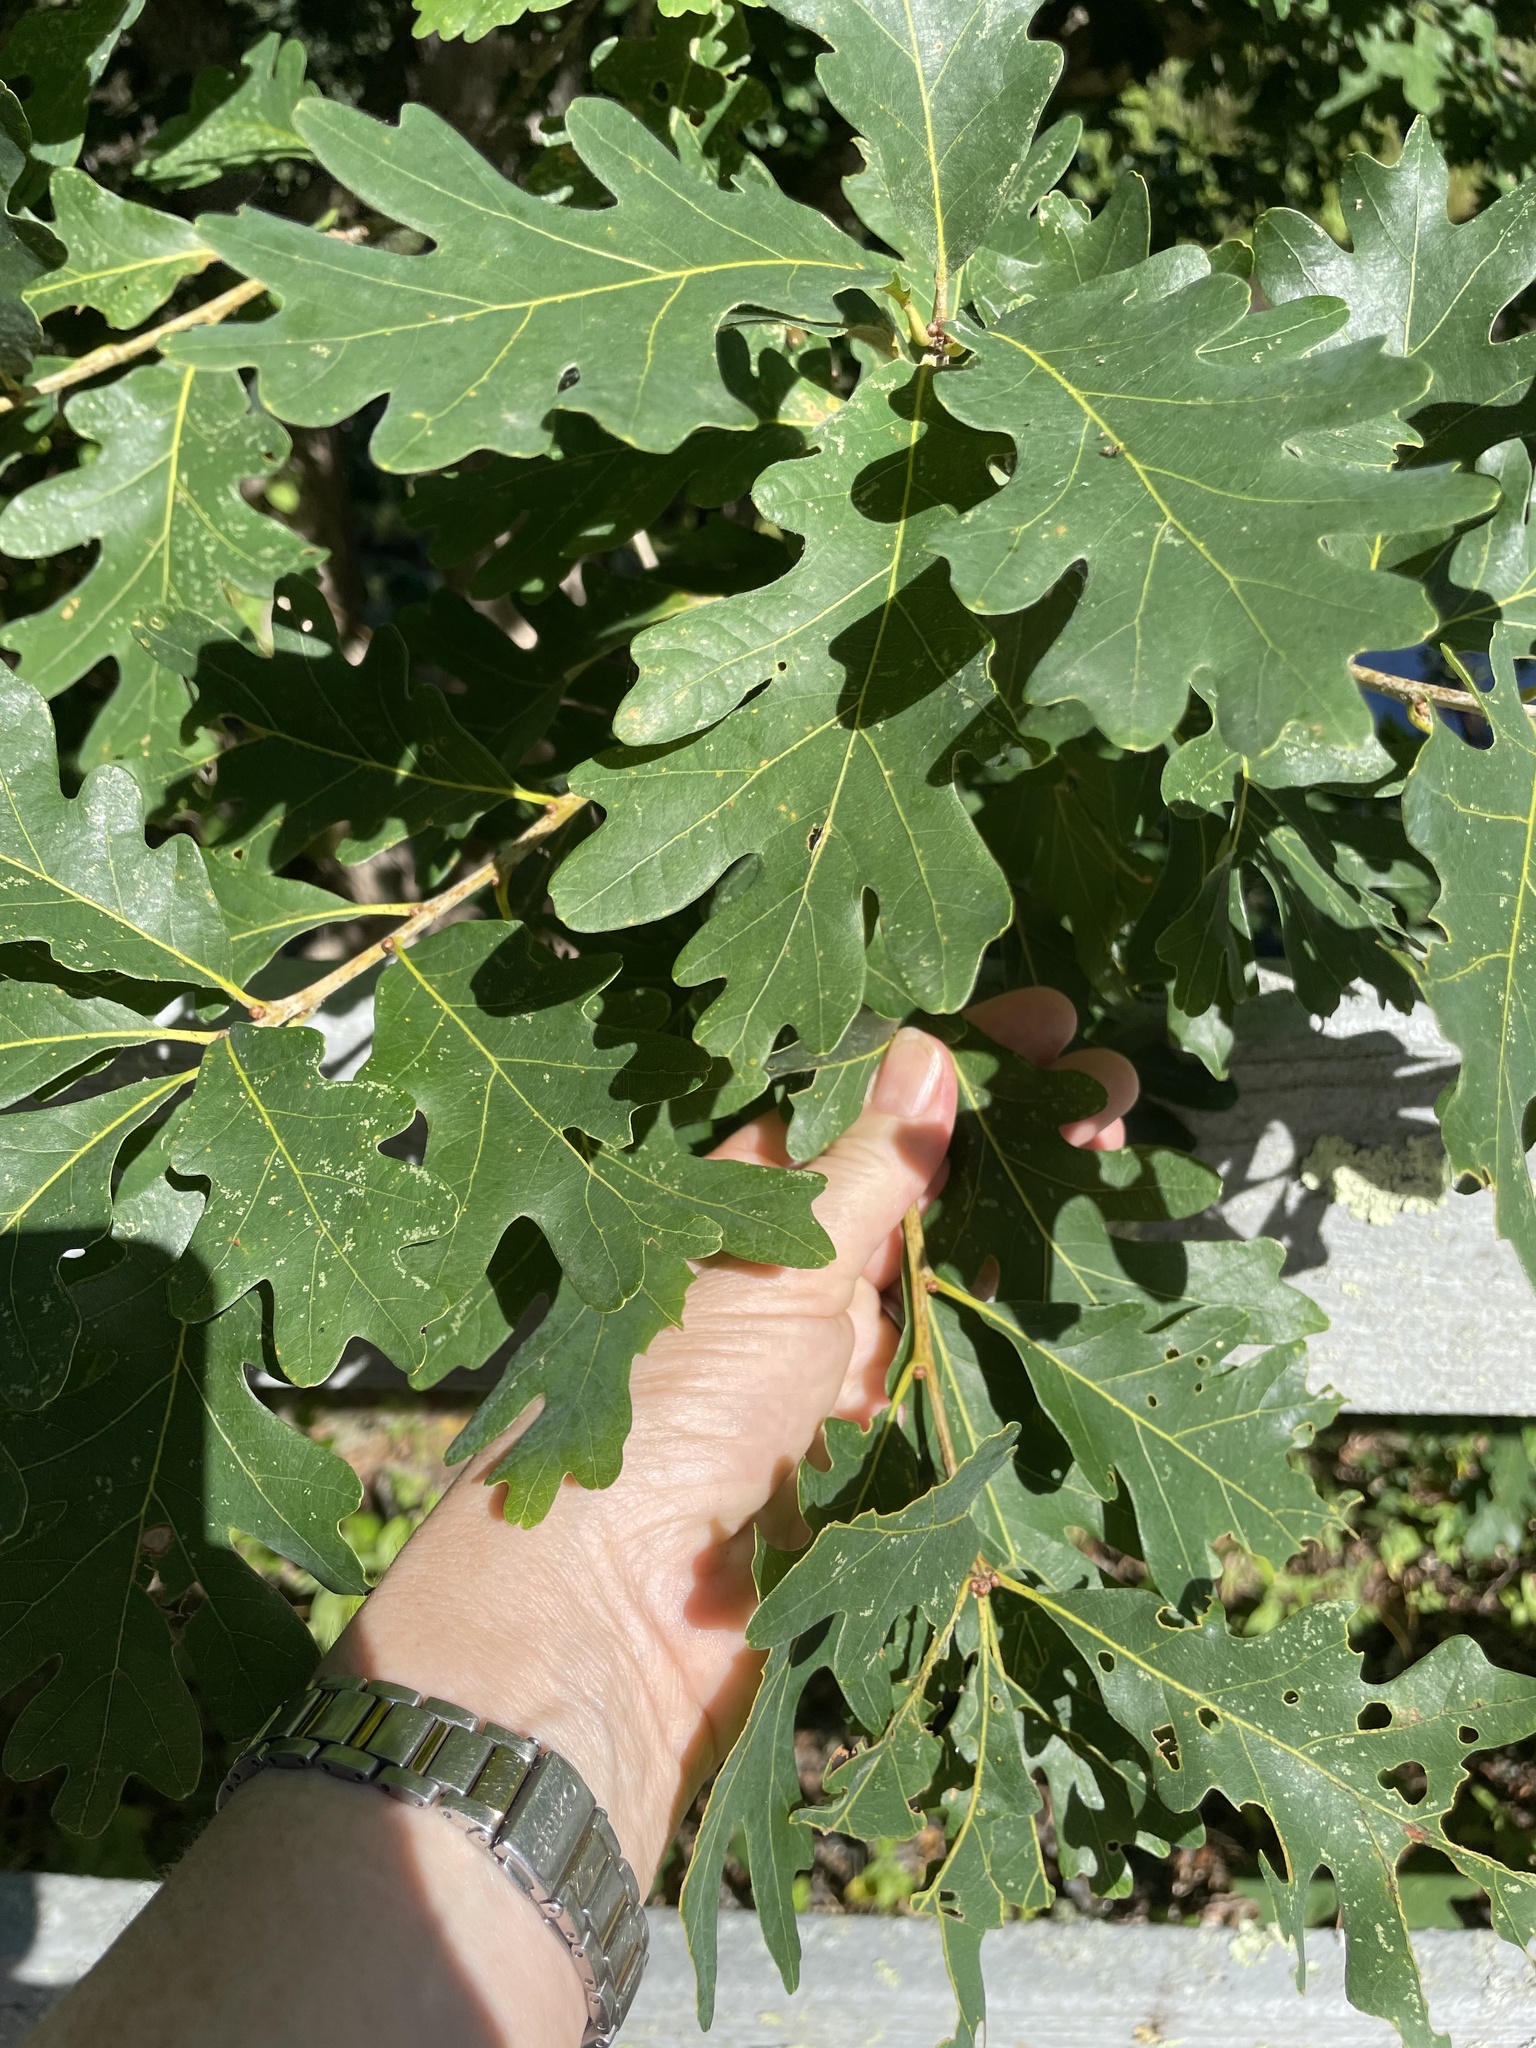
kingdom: Plantae
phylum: Tracheophyta
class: Magnoliopsida
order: Fagales
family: Fagaceae
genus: Quercus
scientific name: Quercus alba
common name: White oak
